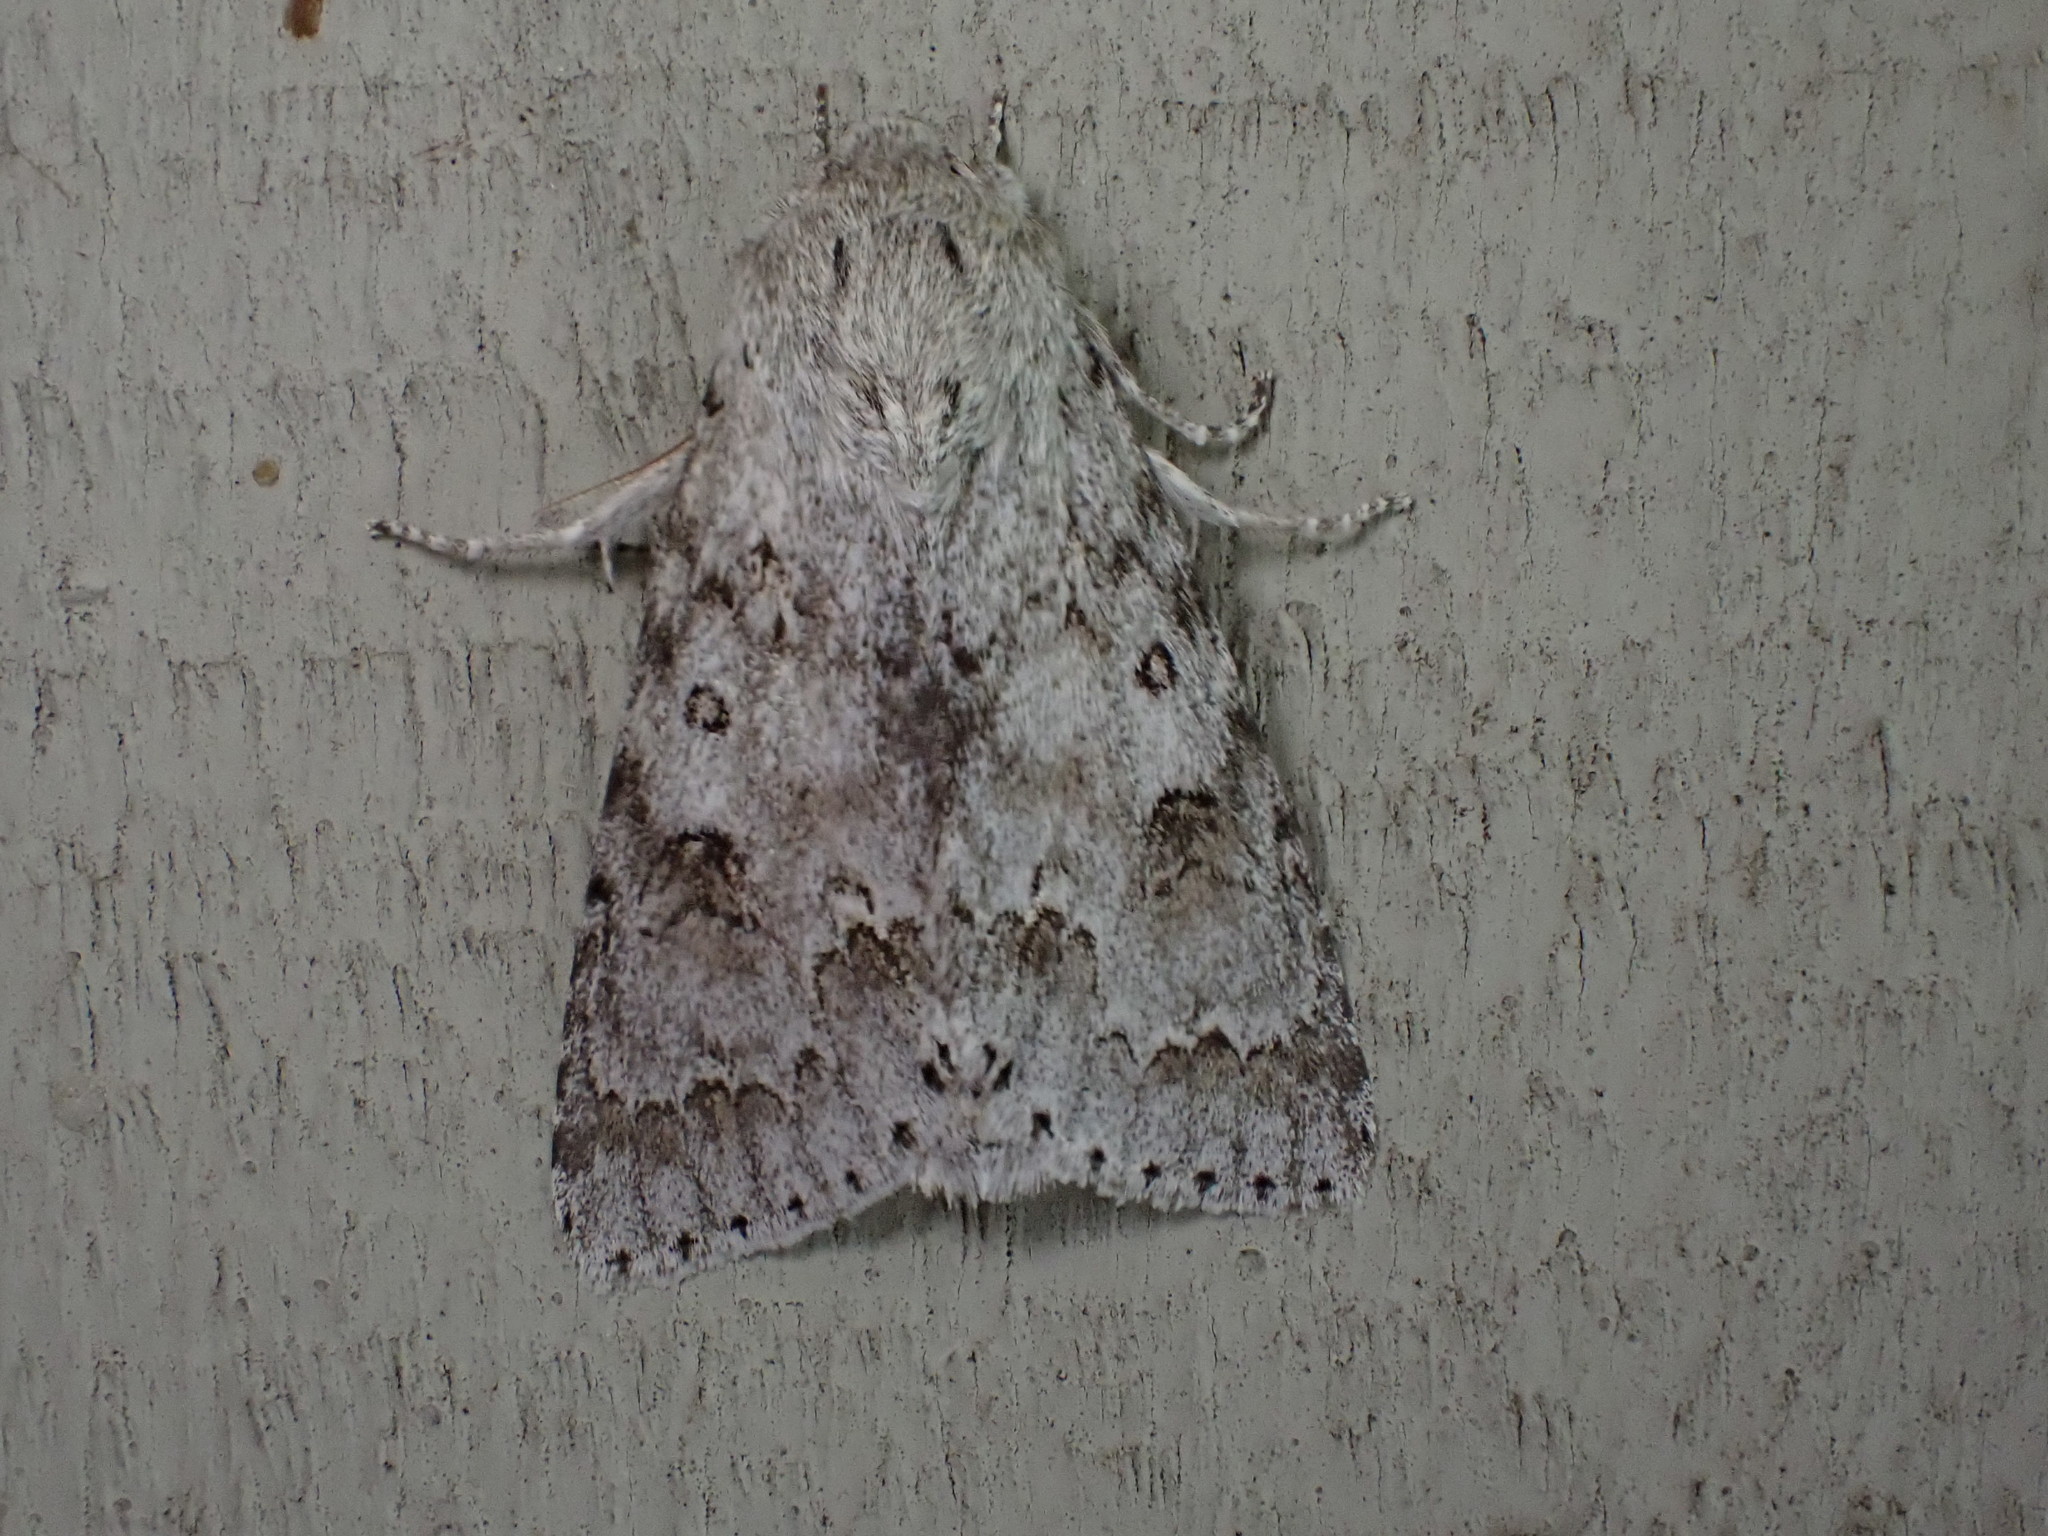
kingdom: Animalia
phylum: Arthropoda
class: Insecta
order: Lepidoptera
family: Noctuidae
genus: Acronicta
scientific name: Acronicta insita
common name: Large gray dagger
